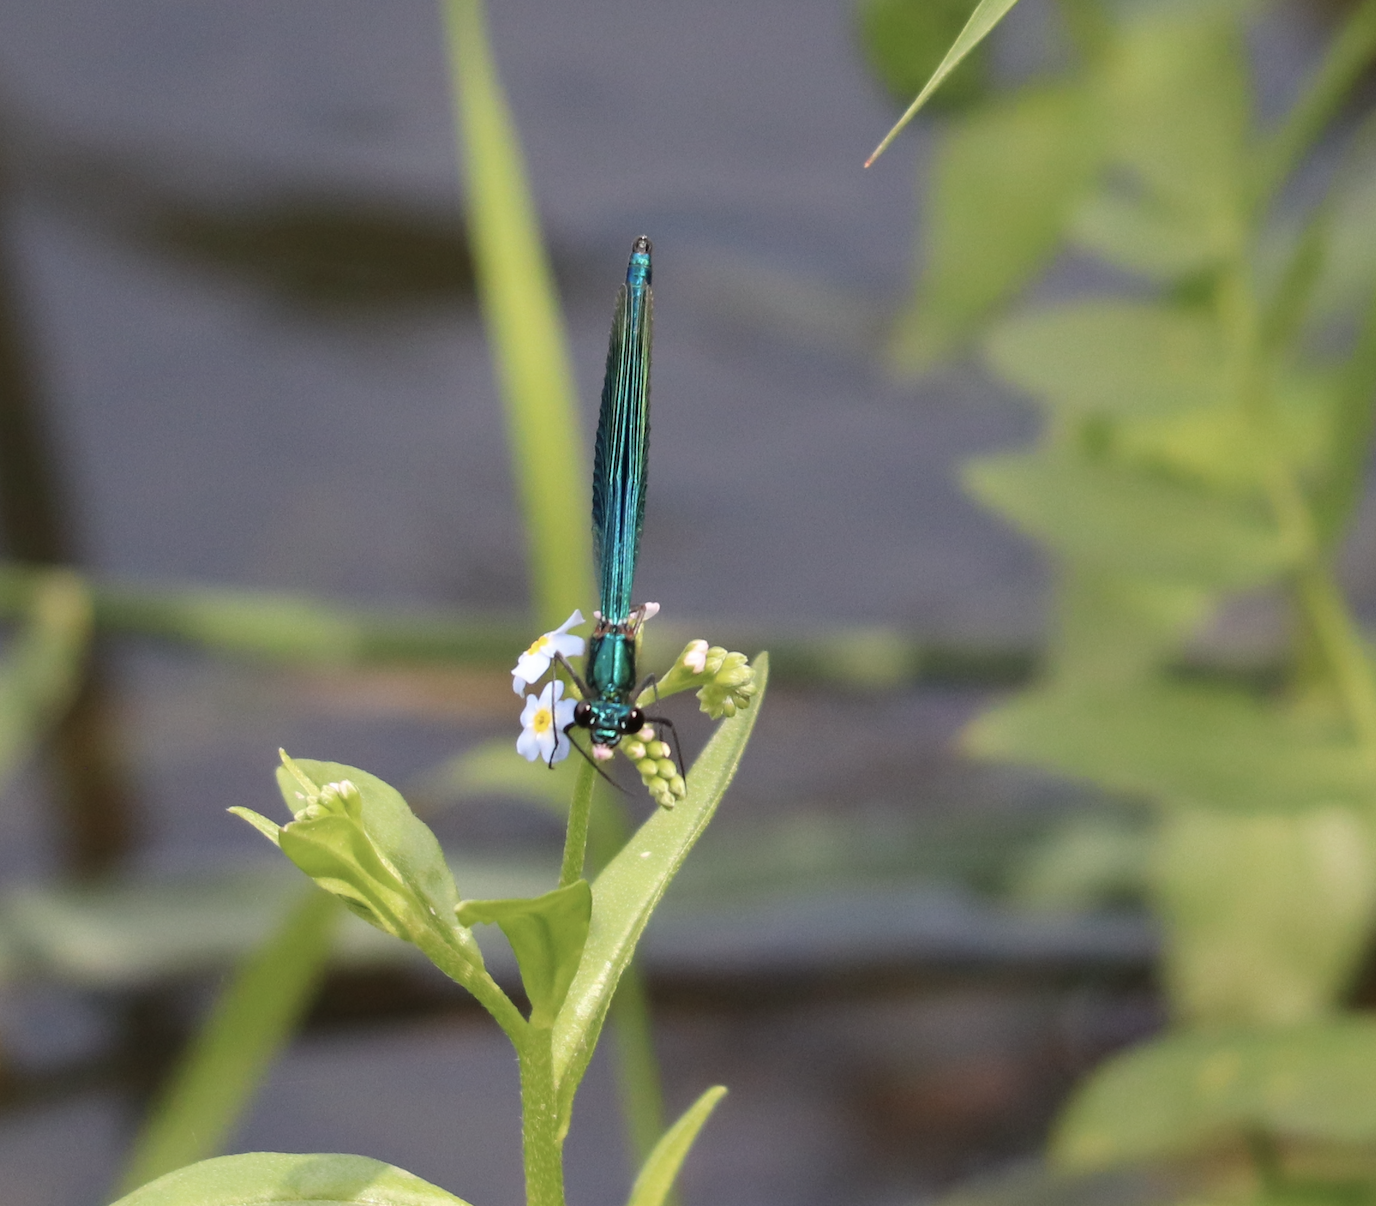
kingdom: Animalia
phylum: Arthropoda
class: Insecta
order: Odonata
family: Calopterygidae
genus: Calopteryx
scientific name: Calopteryx splendens
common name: Banded demoiselle
